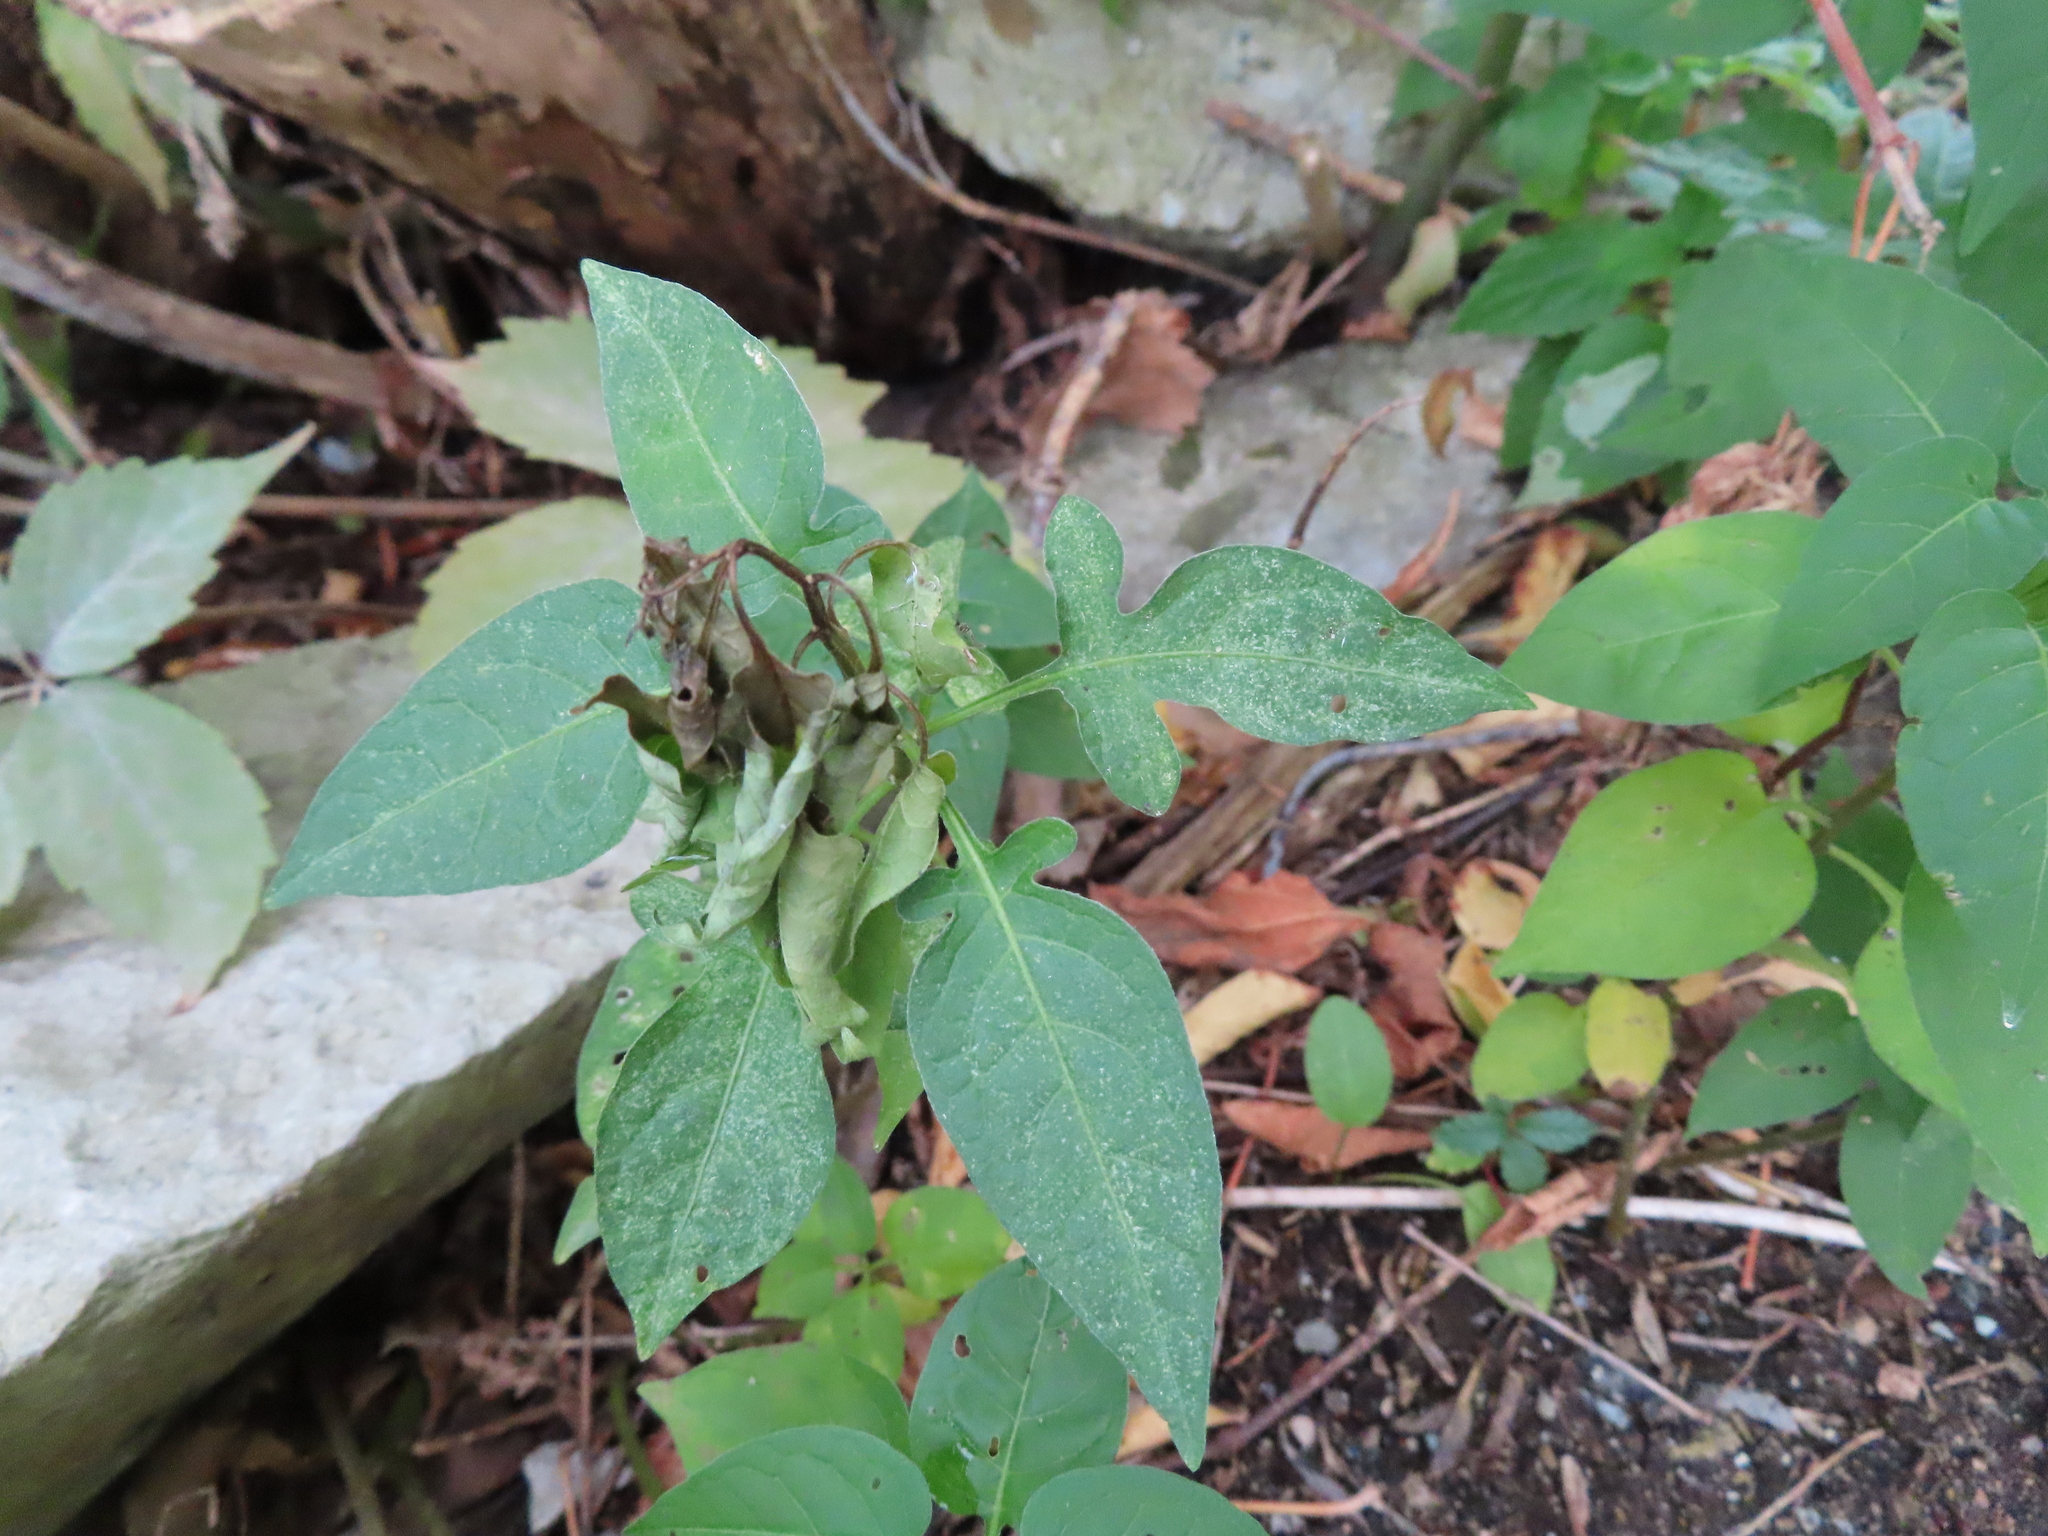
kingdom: Plantae
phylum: Tracheophyta
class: Magnoliopsida
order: Solanales
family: Solanaceae
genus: Solanum
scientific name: Solanum dulcamara
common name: Climbing nightshade
